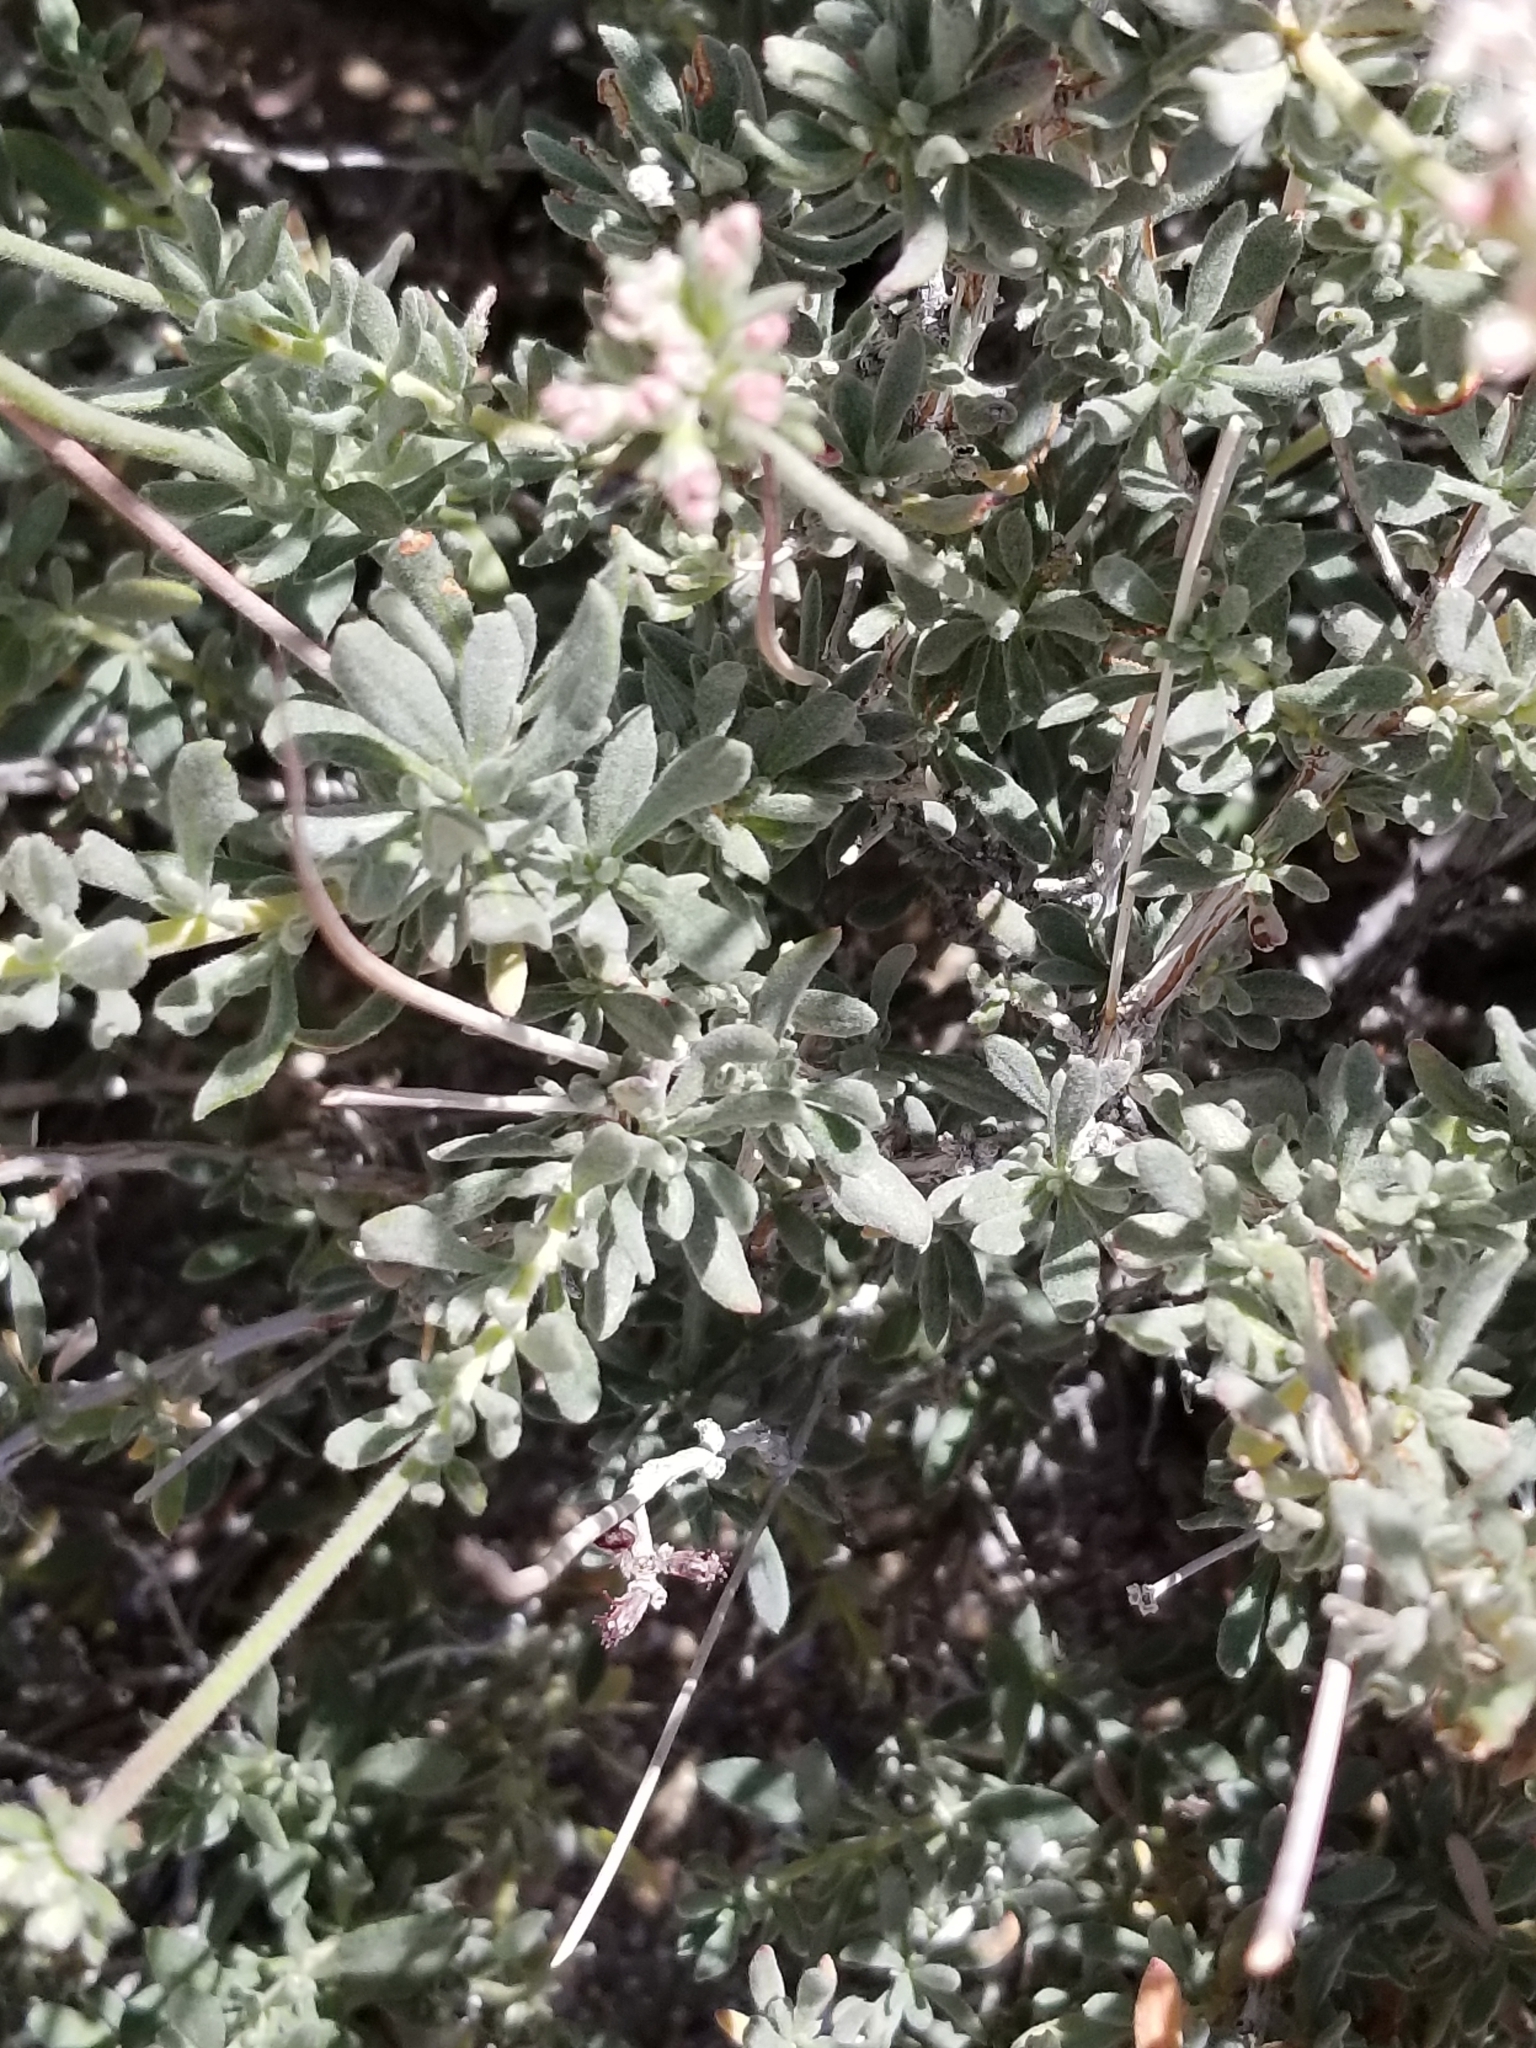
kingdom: Plantae
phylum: Tracheophyta
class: Magnoliopsida
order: Caryophyllales
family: Polygonaceae
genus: Eriogonum
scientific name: Eriogonum fasciculatum
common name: California wild buckwheat
